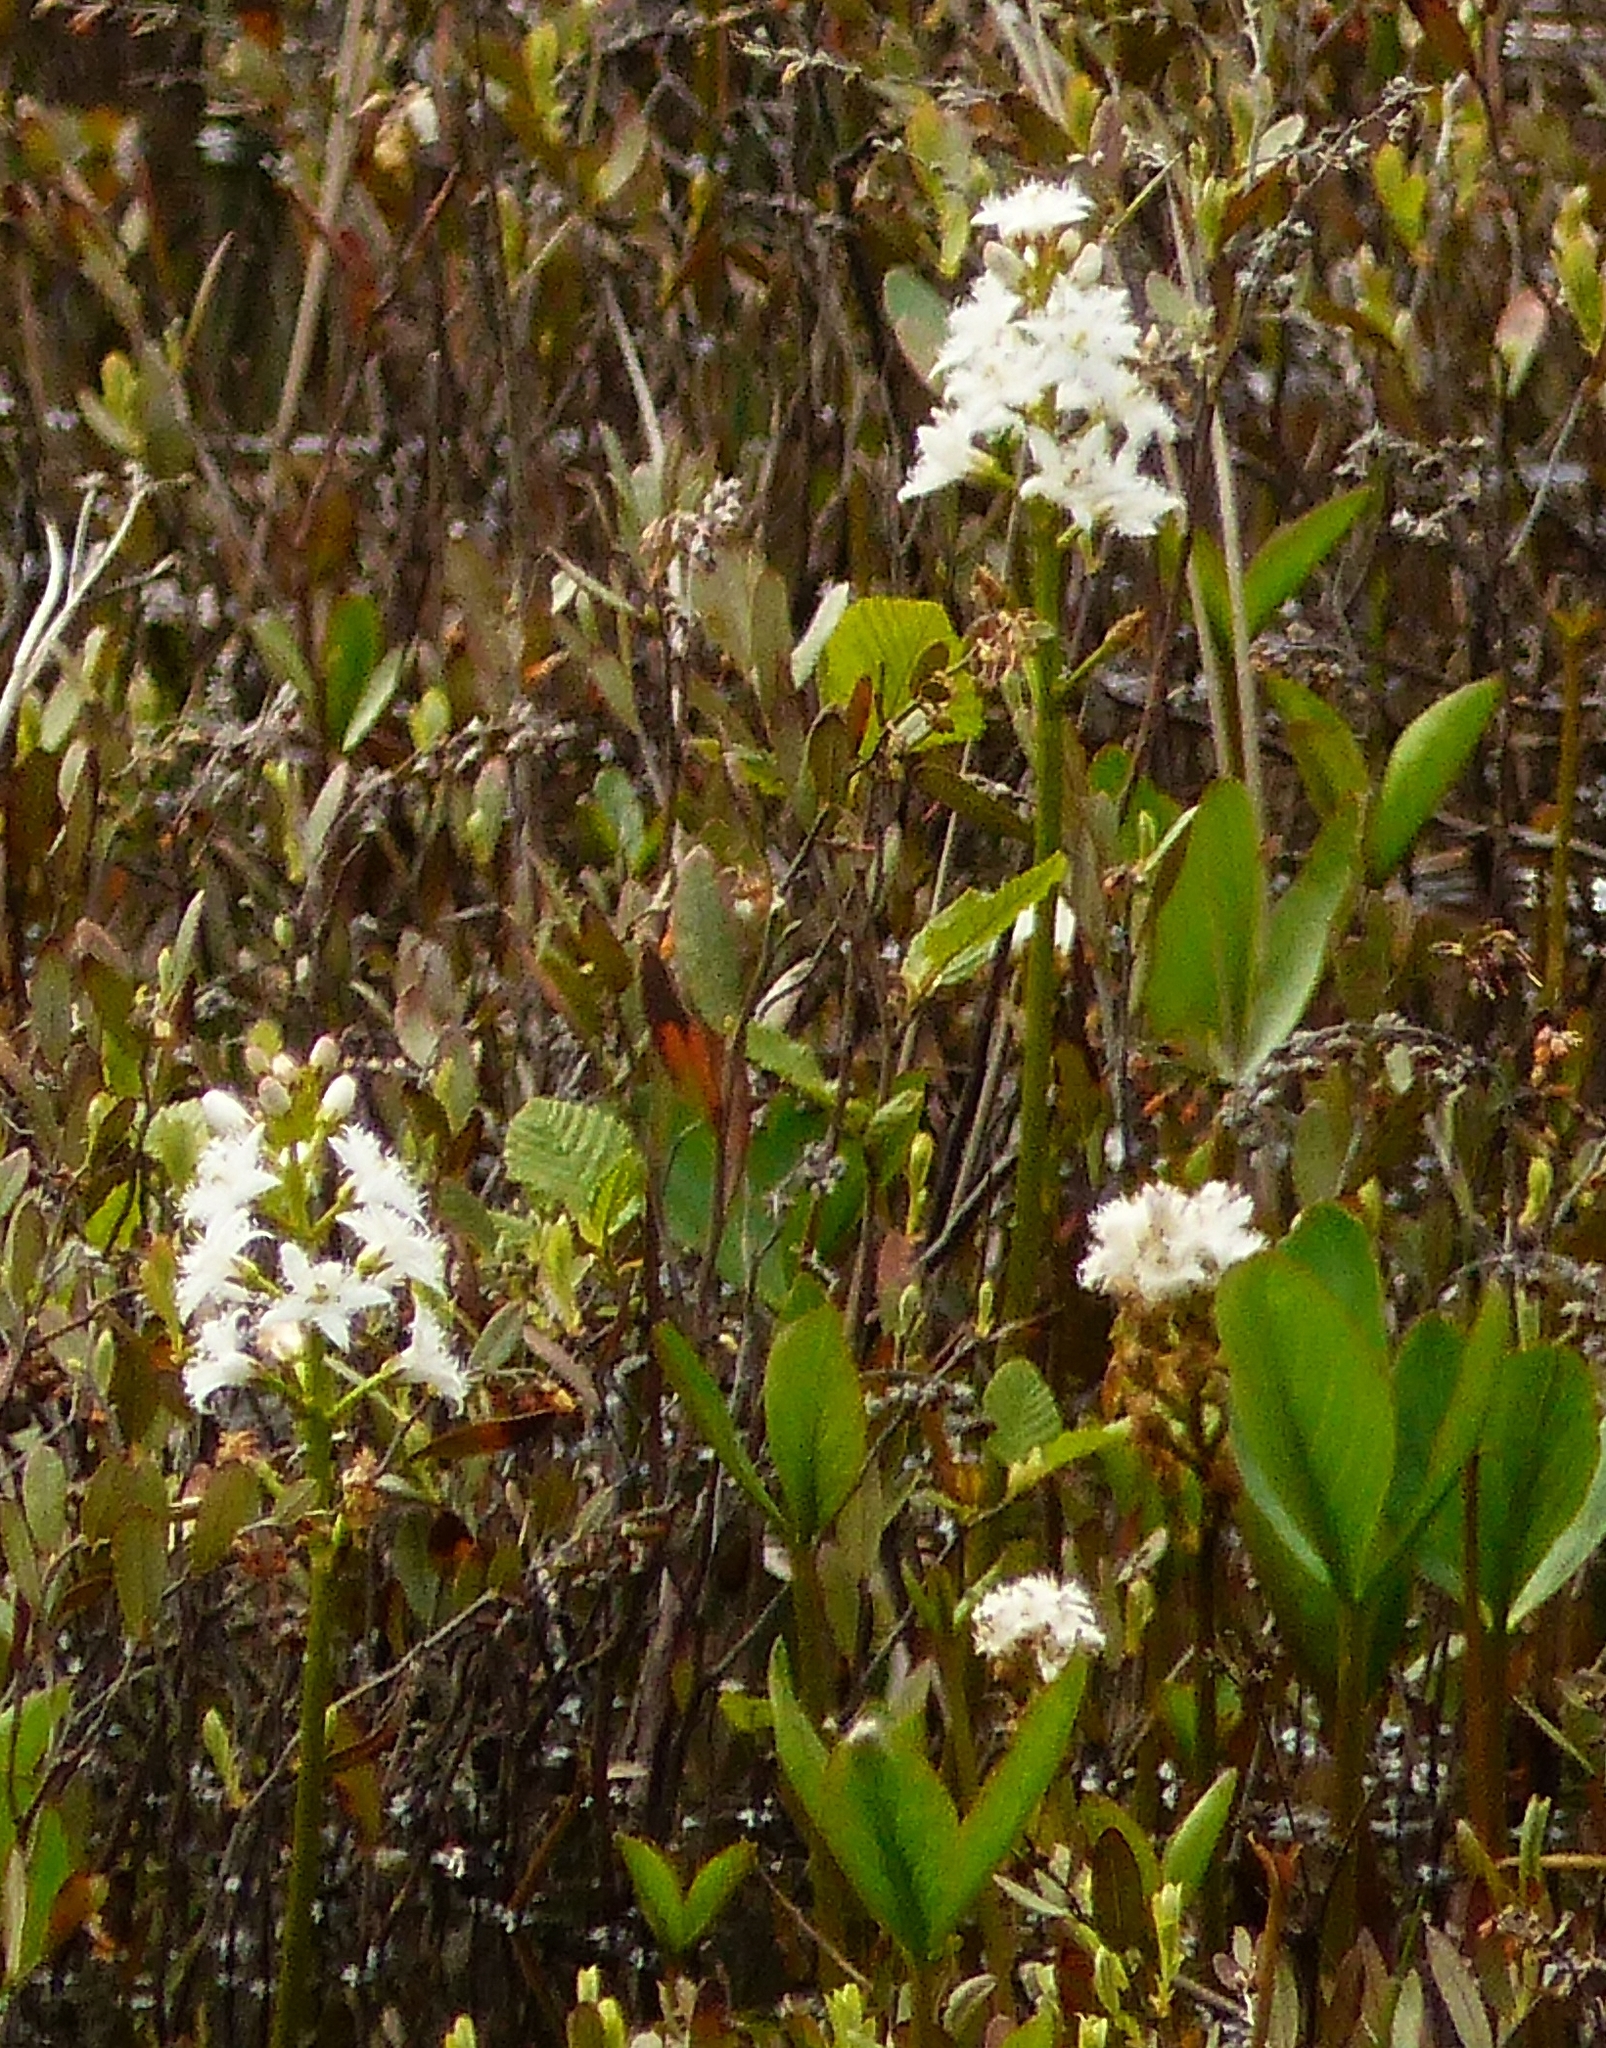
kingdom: Plantae
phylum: Tracheophyta
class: Magnoliopsida
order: Asterales
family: Menyanthaceae
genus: Menyanthes
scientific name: Menyanthes trifoliata
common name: Bogbean
